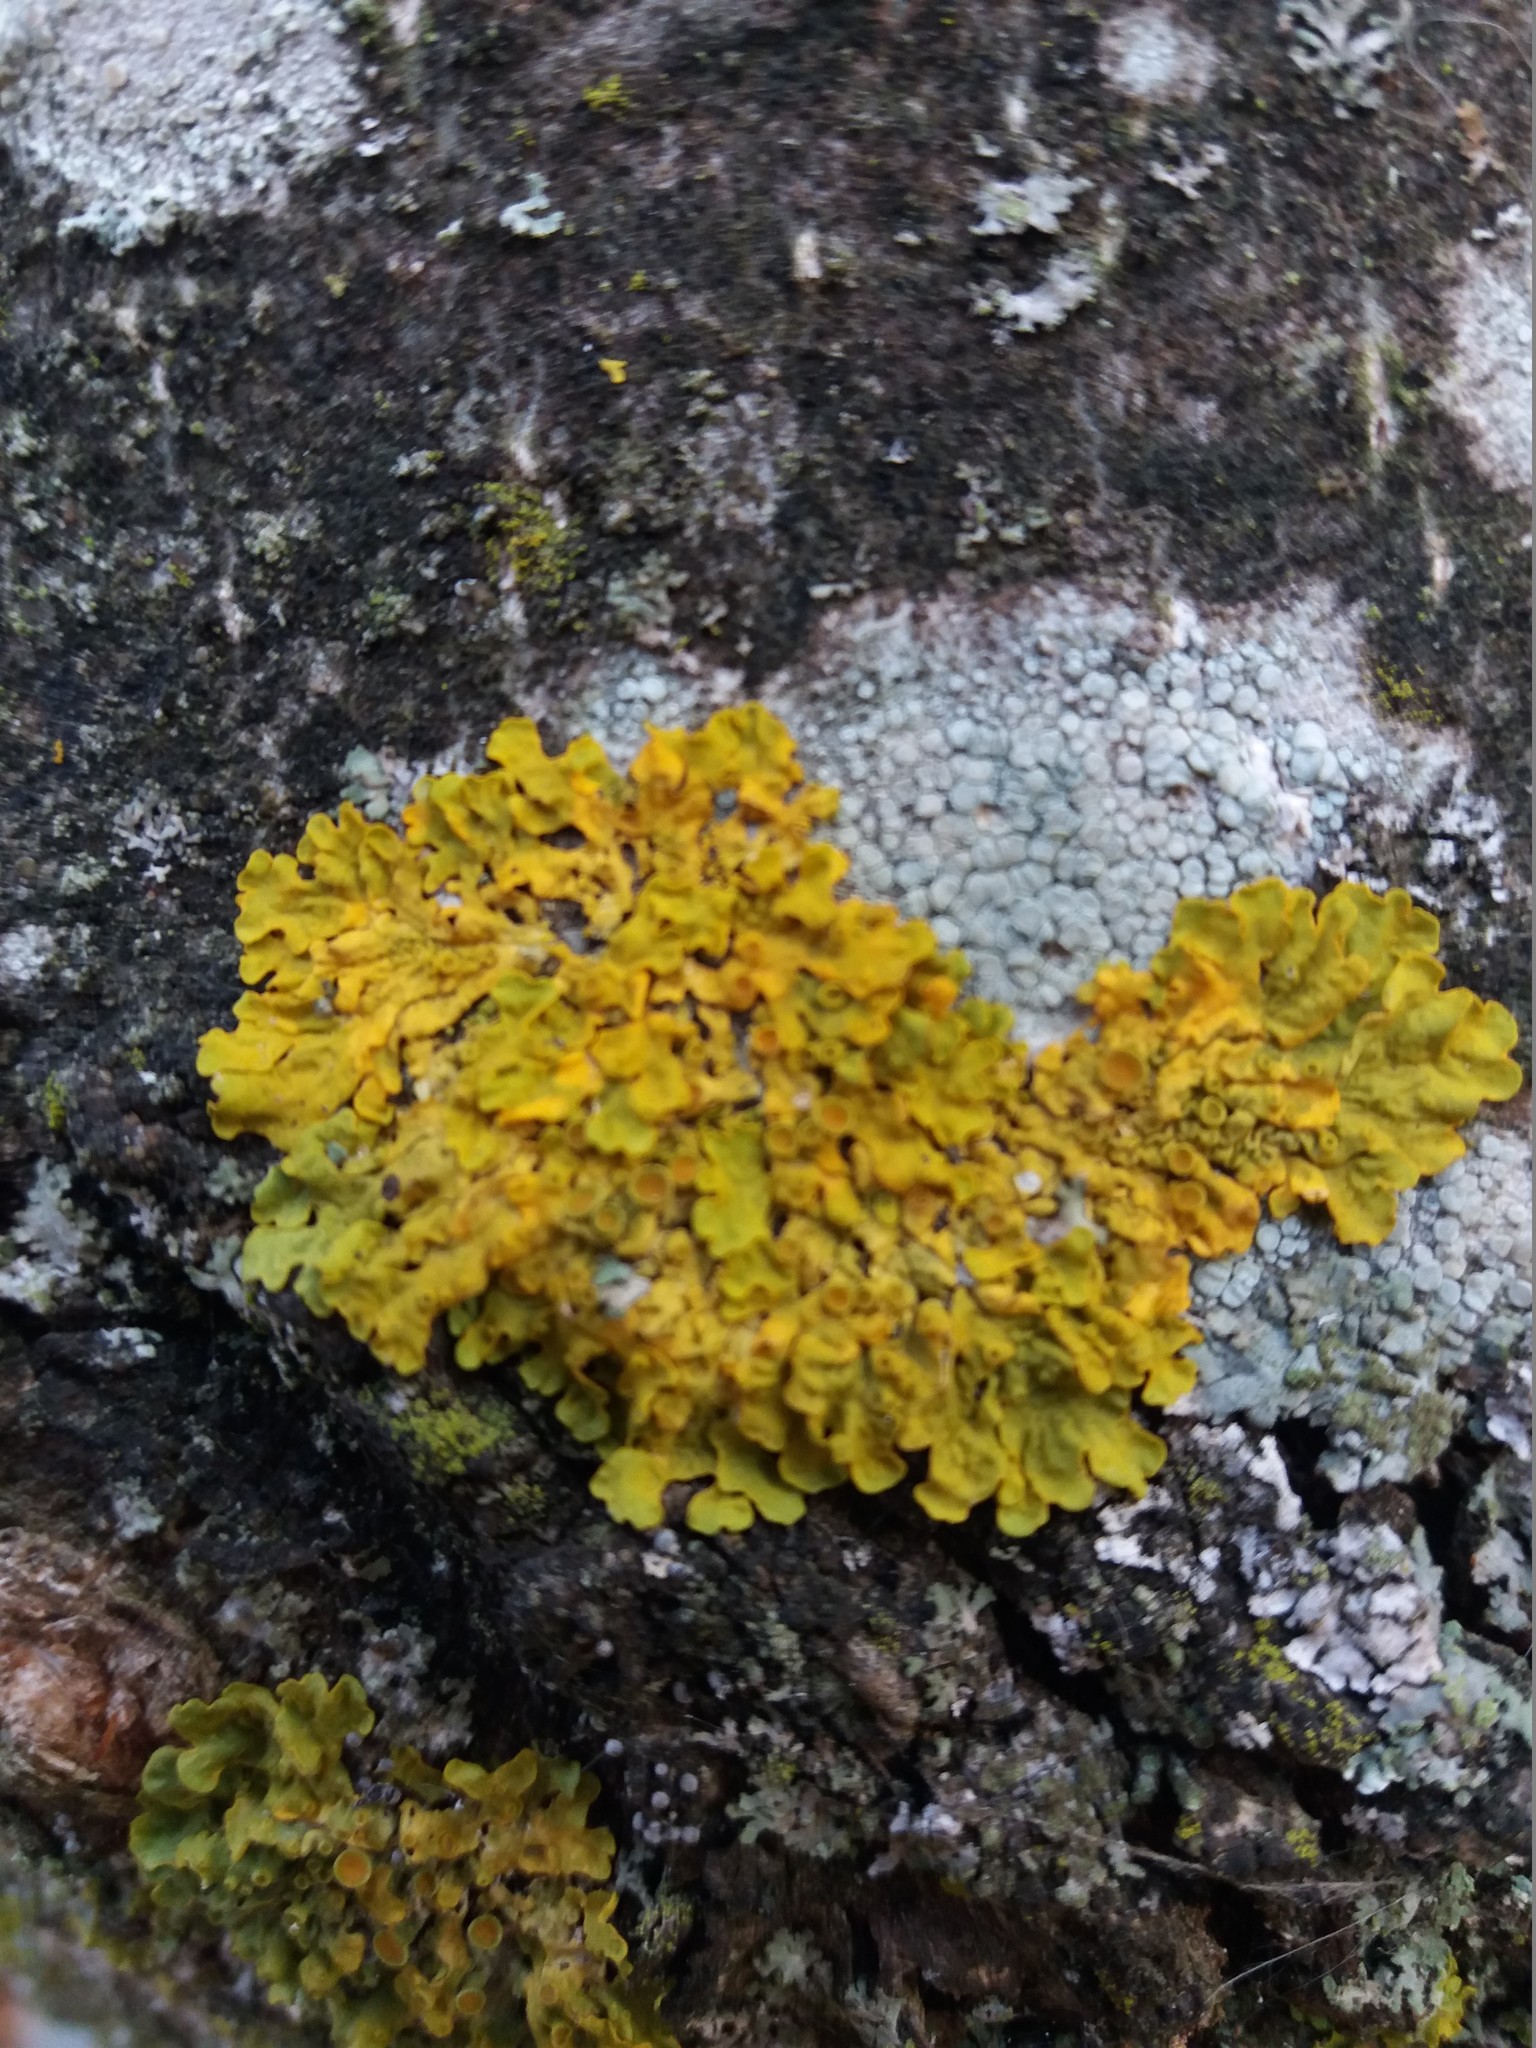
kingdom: Fungi
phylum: Ascomycota
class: Lecanoromycetes
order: Teloschistales
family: Teloschistaceae
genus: Xanthoria
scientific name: Xanthoria parietina
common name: Common orange lichen
